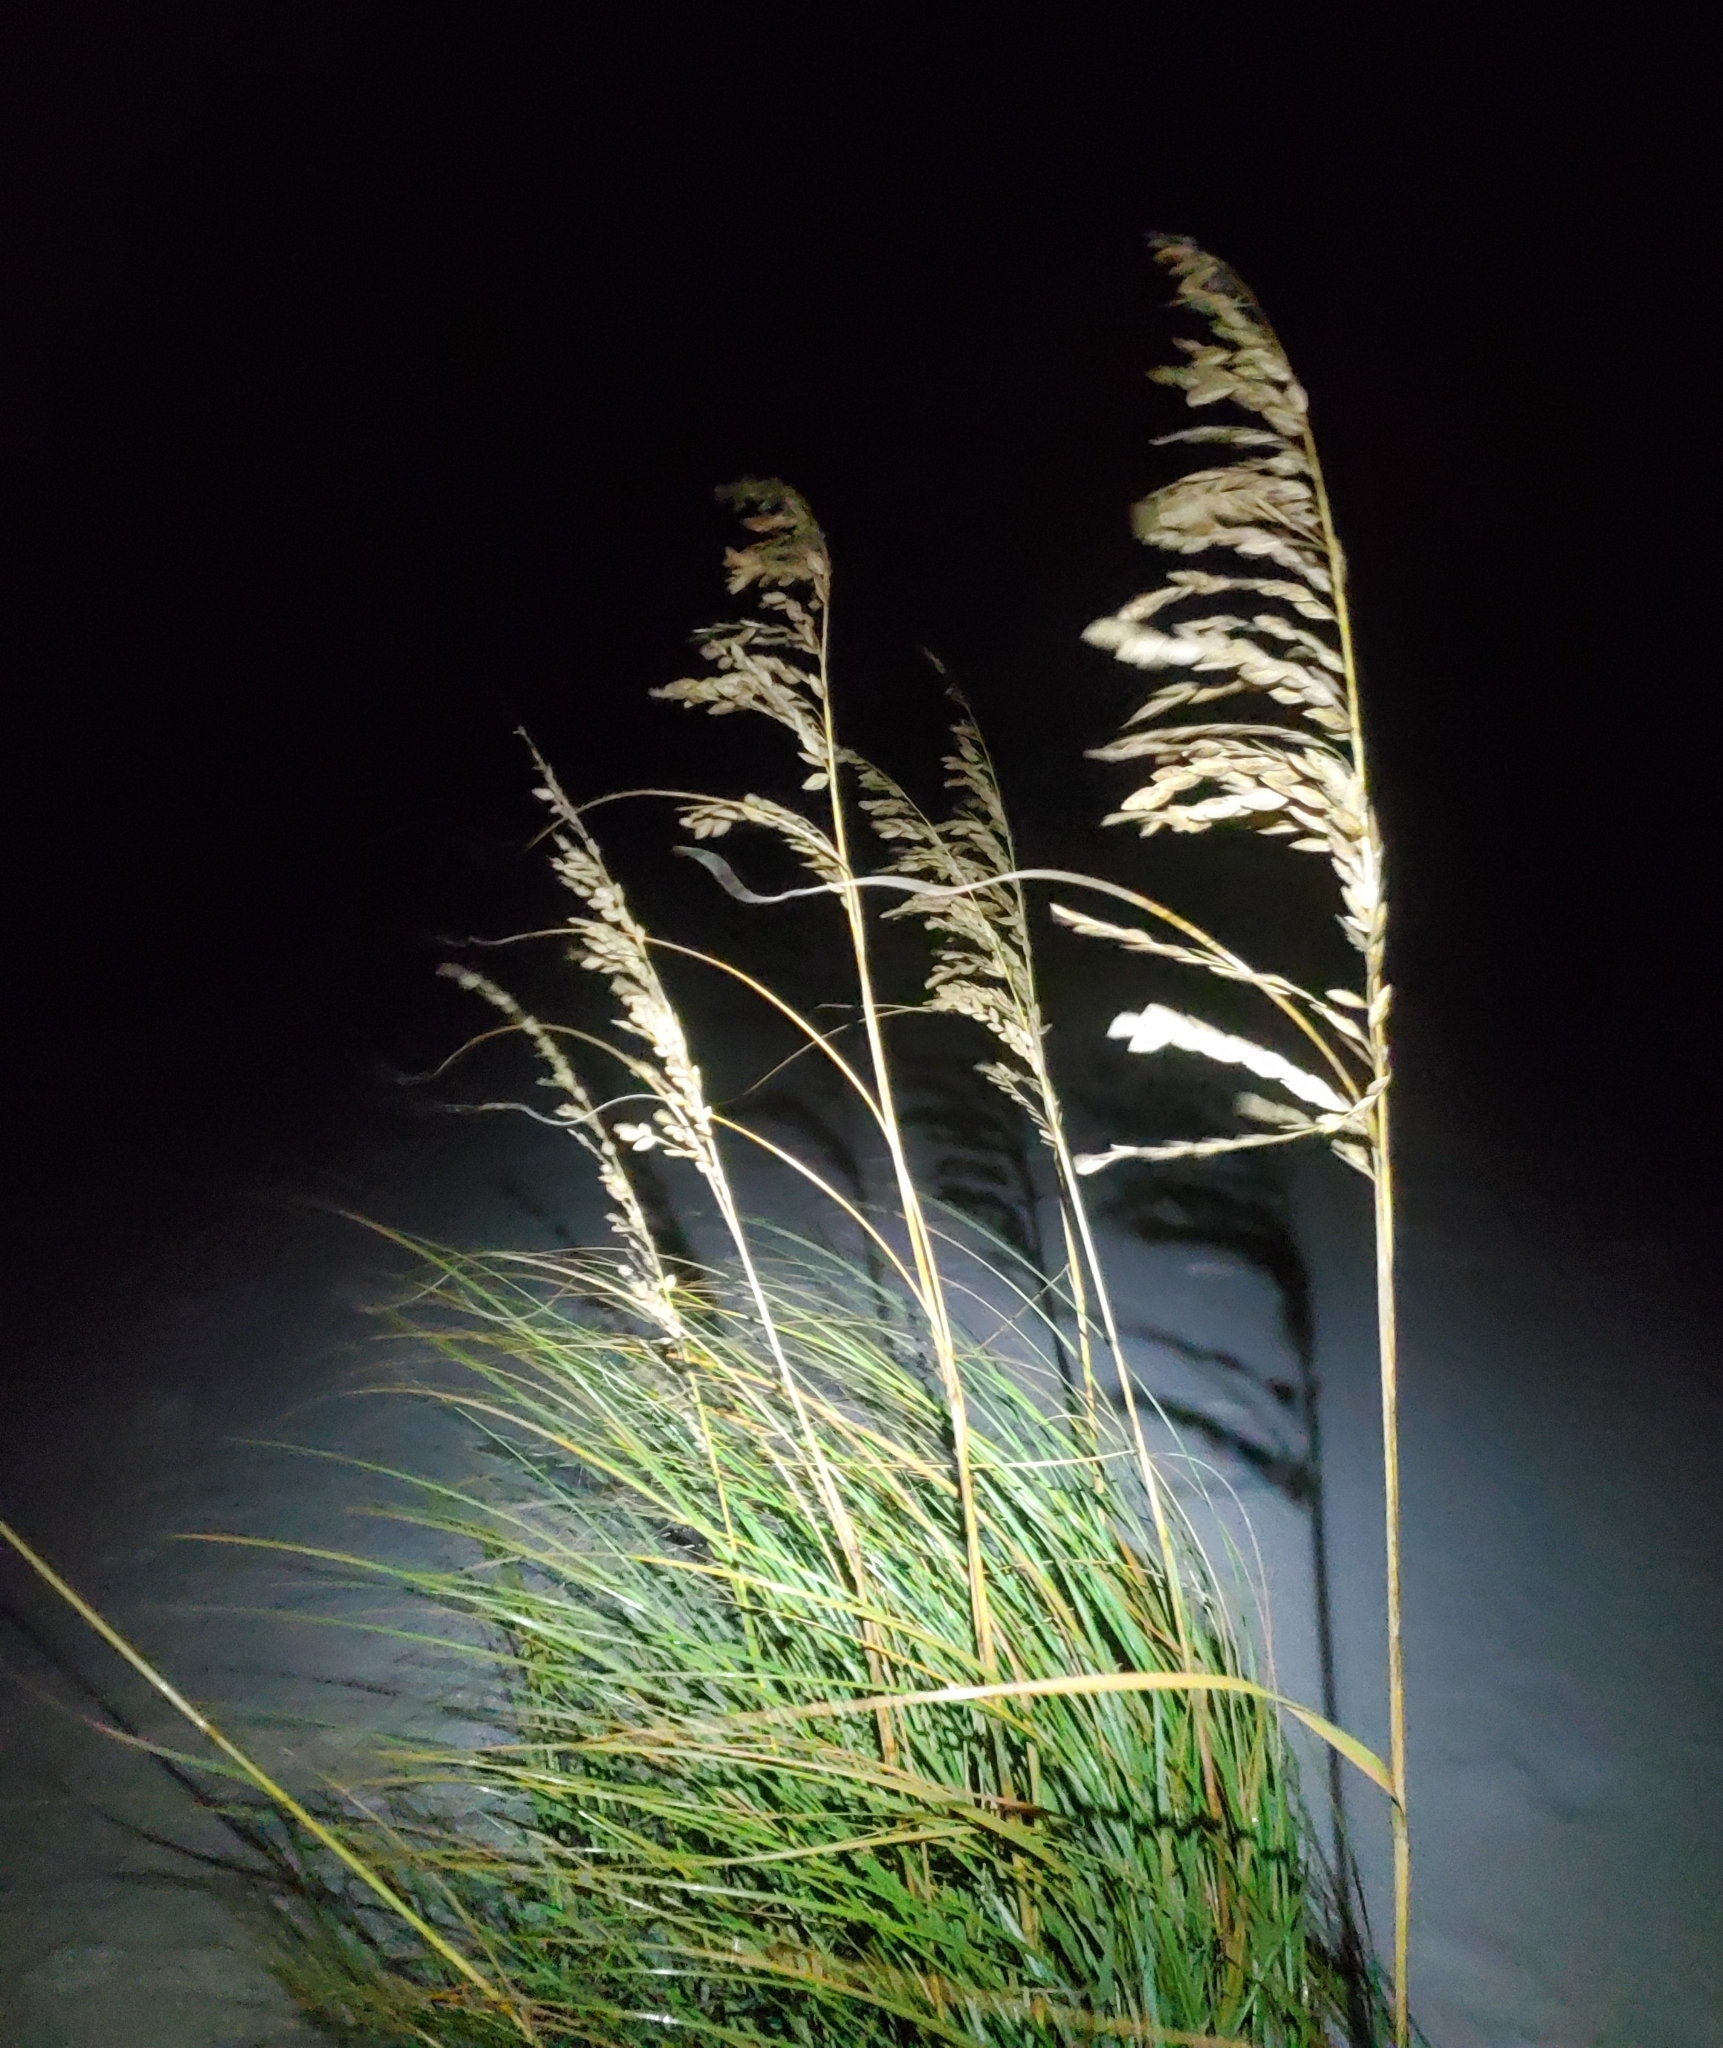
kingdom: Plantae
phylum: Tracheophyta
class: Liliopsida
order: Poales
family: Poaceae
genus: Uniola
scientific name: Uniola paniculata
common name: Seaside-oats
